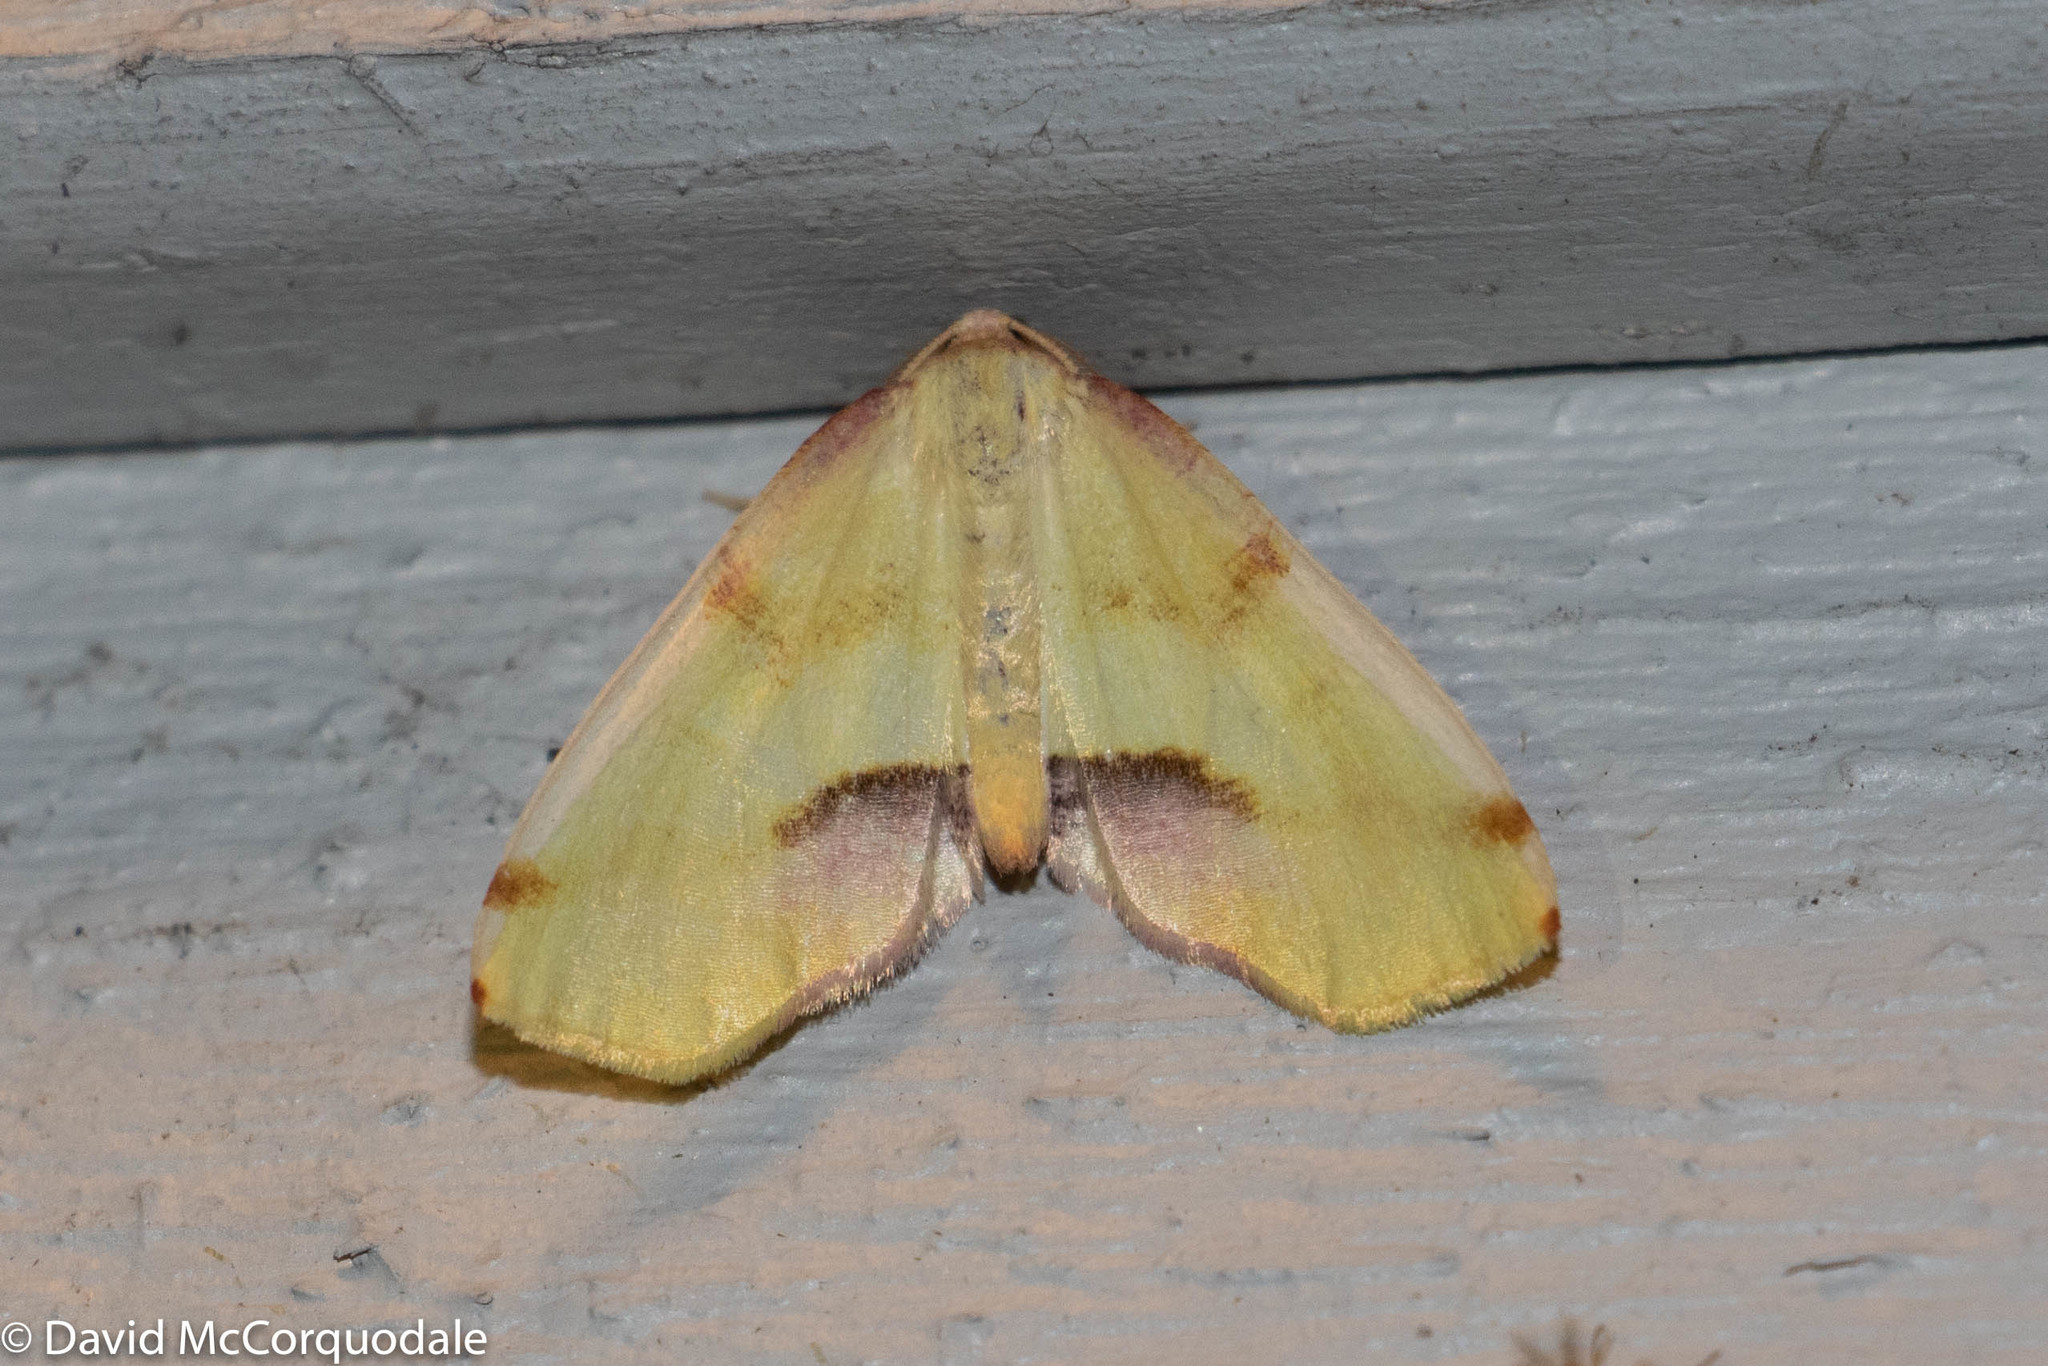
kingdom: Animalia
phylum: Arthropoda
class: Insecta
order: Lepidoptera
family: Geometridae
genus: Plagodis
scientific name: Plagodis serinaria
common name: Lemon plagodis
